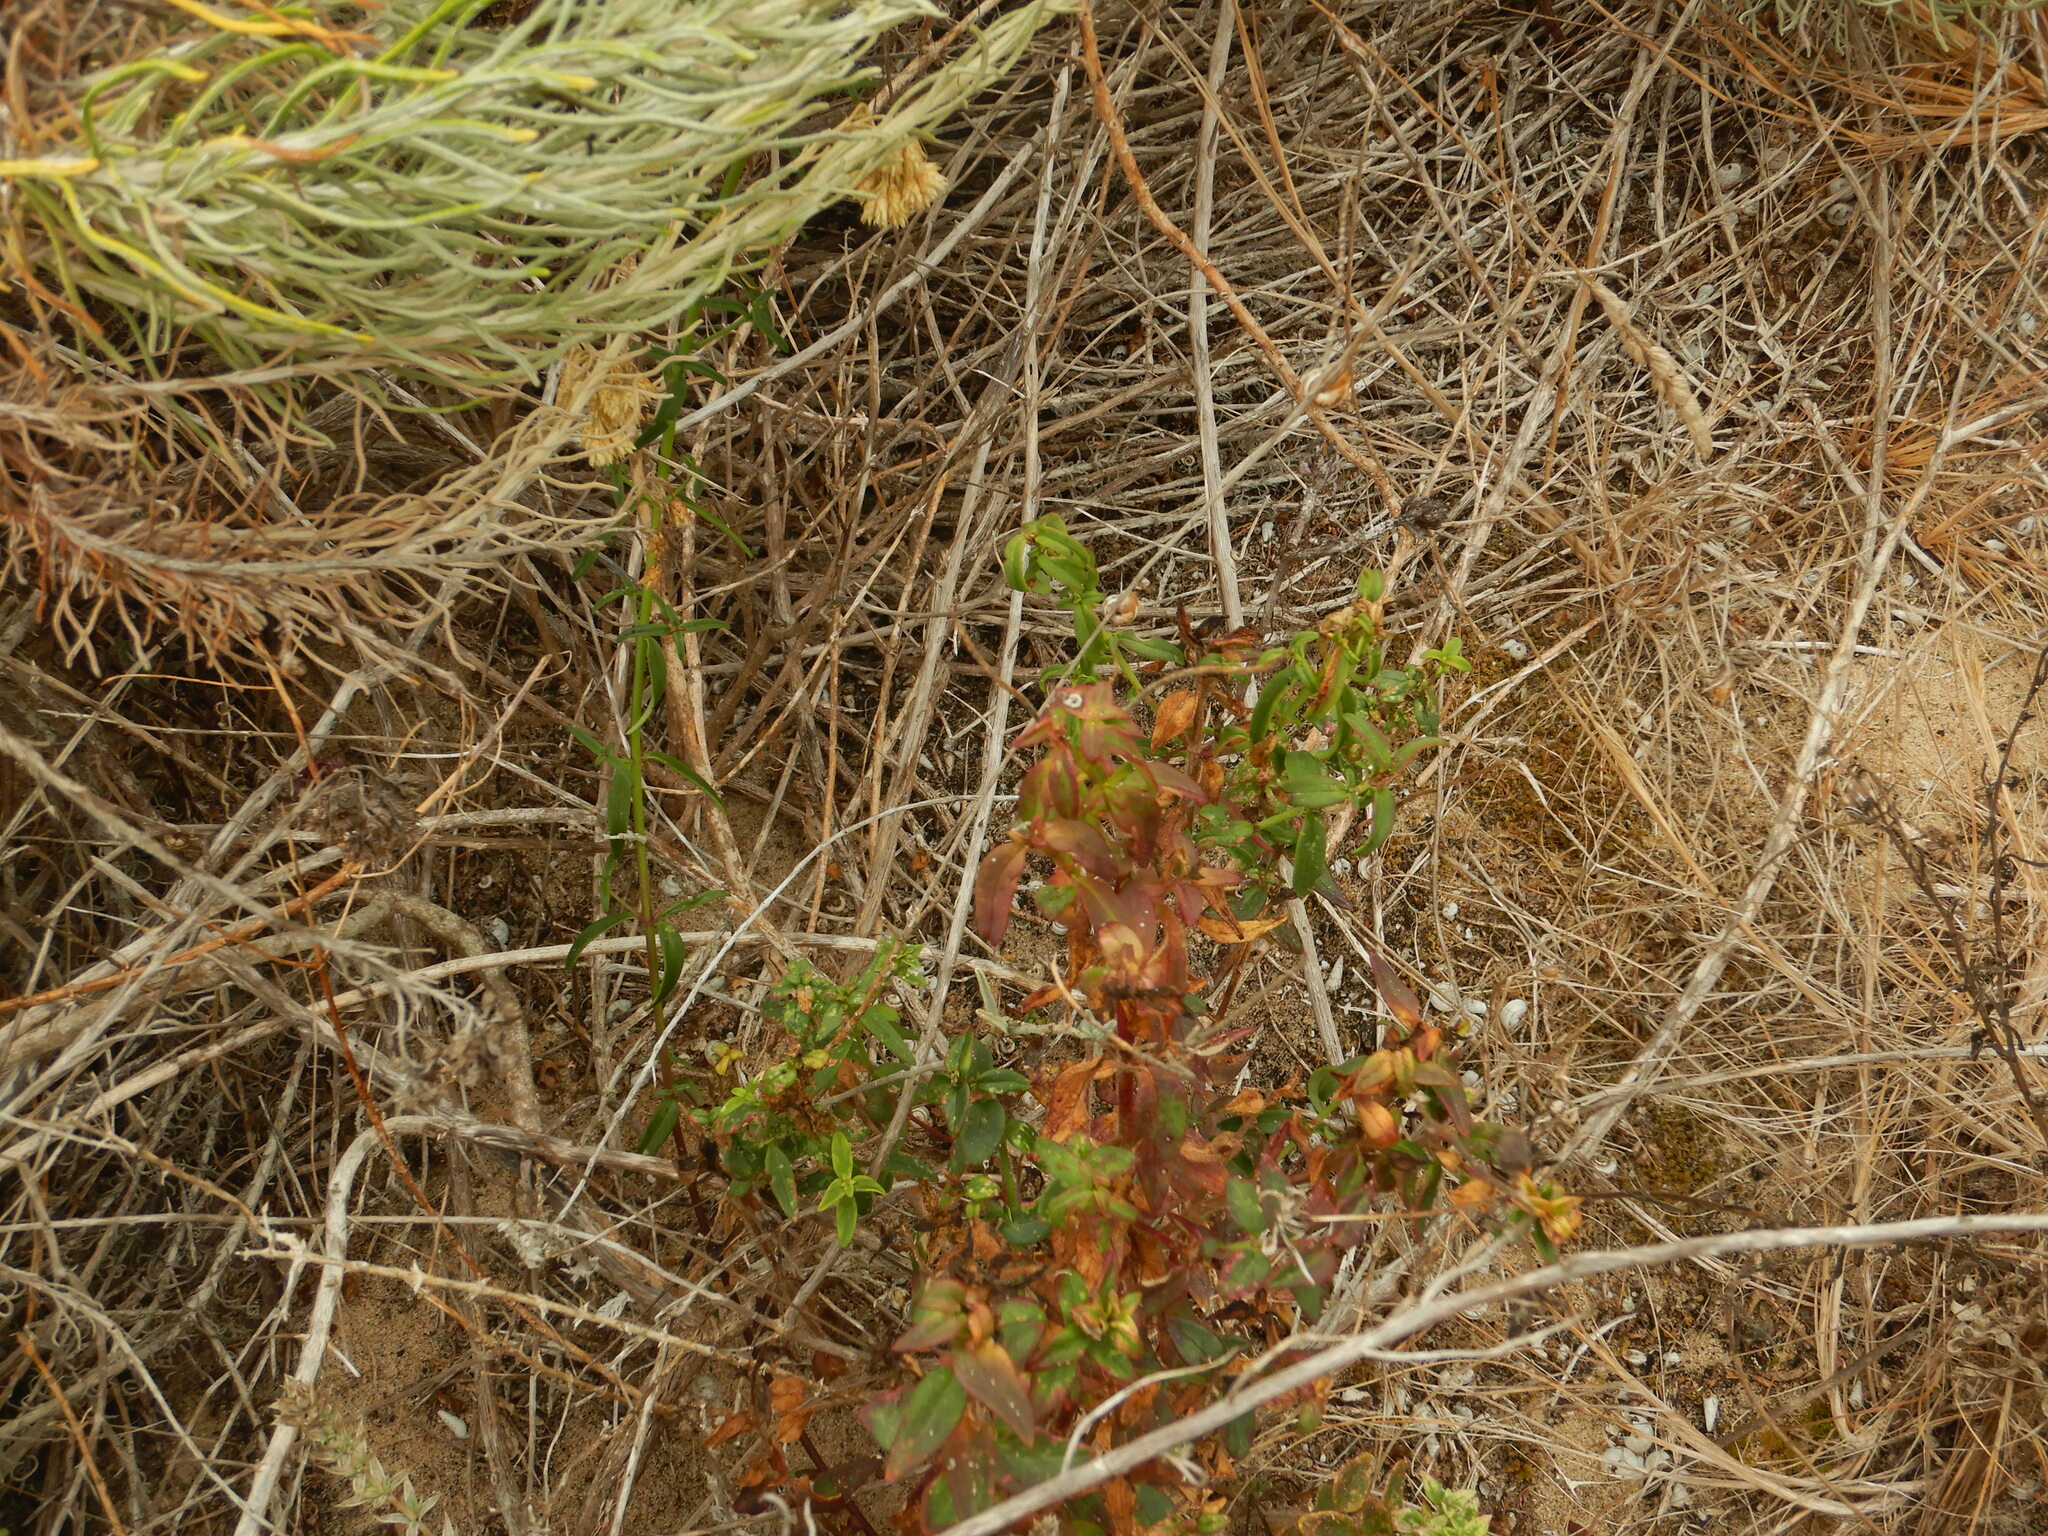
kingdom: Plantae
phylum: Tracheophyta
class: Magnoliopsida
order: Lamiales
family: Plantaginaceae
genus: Antirrhinum
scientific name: Antirrhinum cirrhigerum
